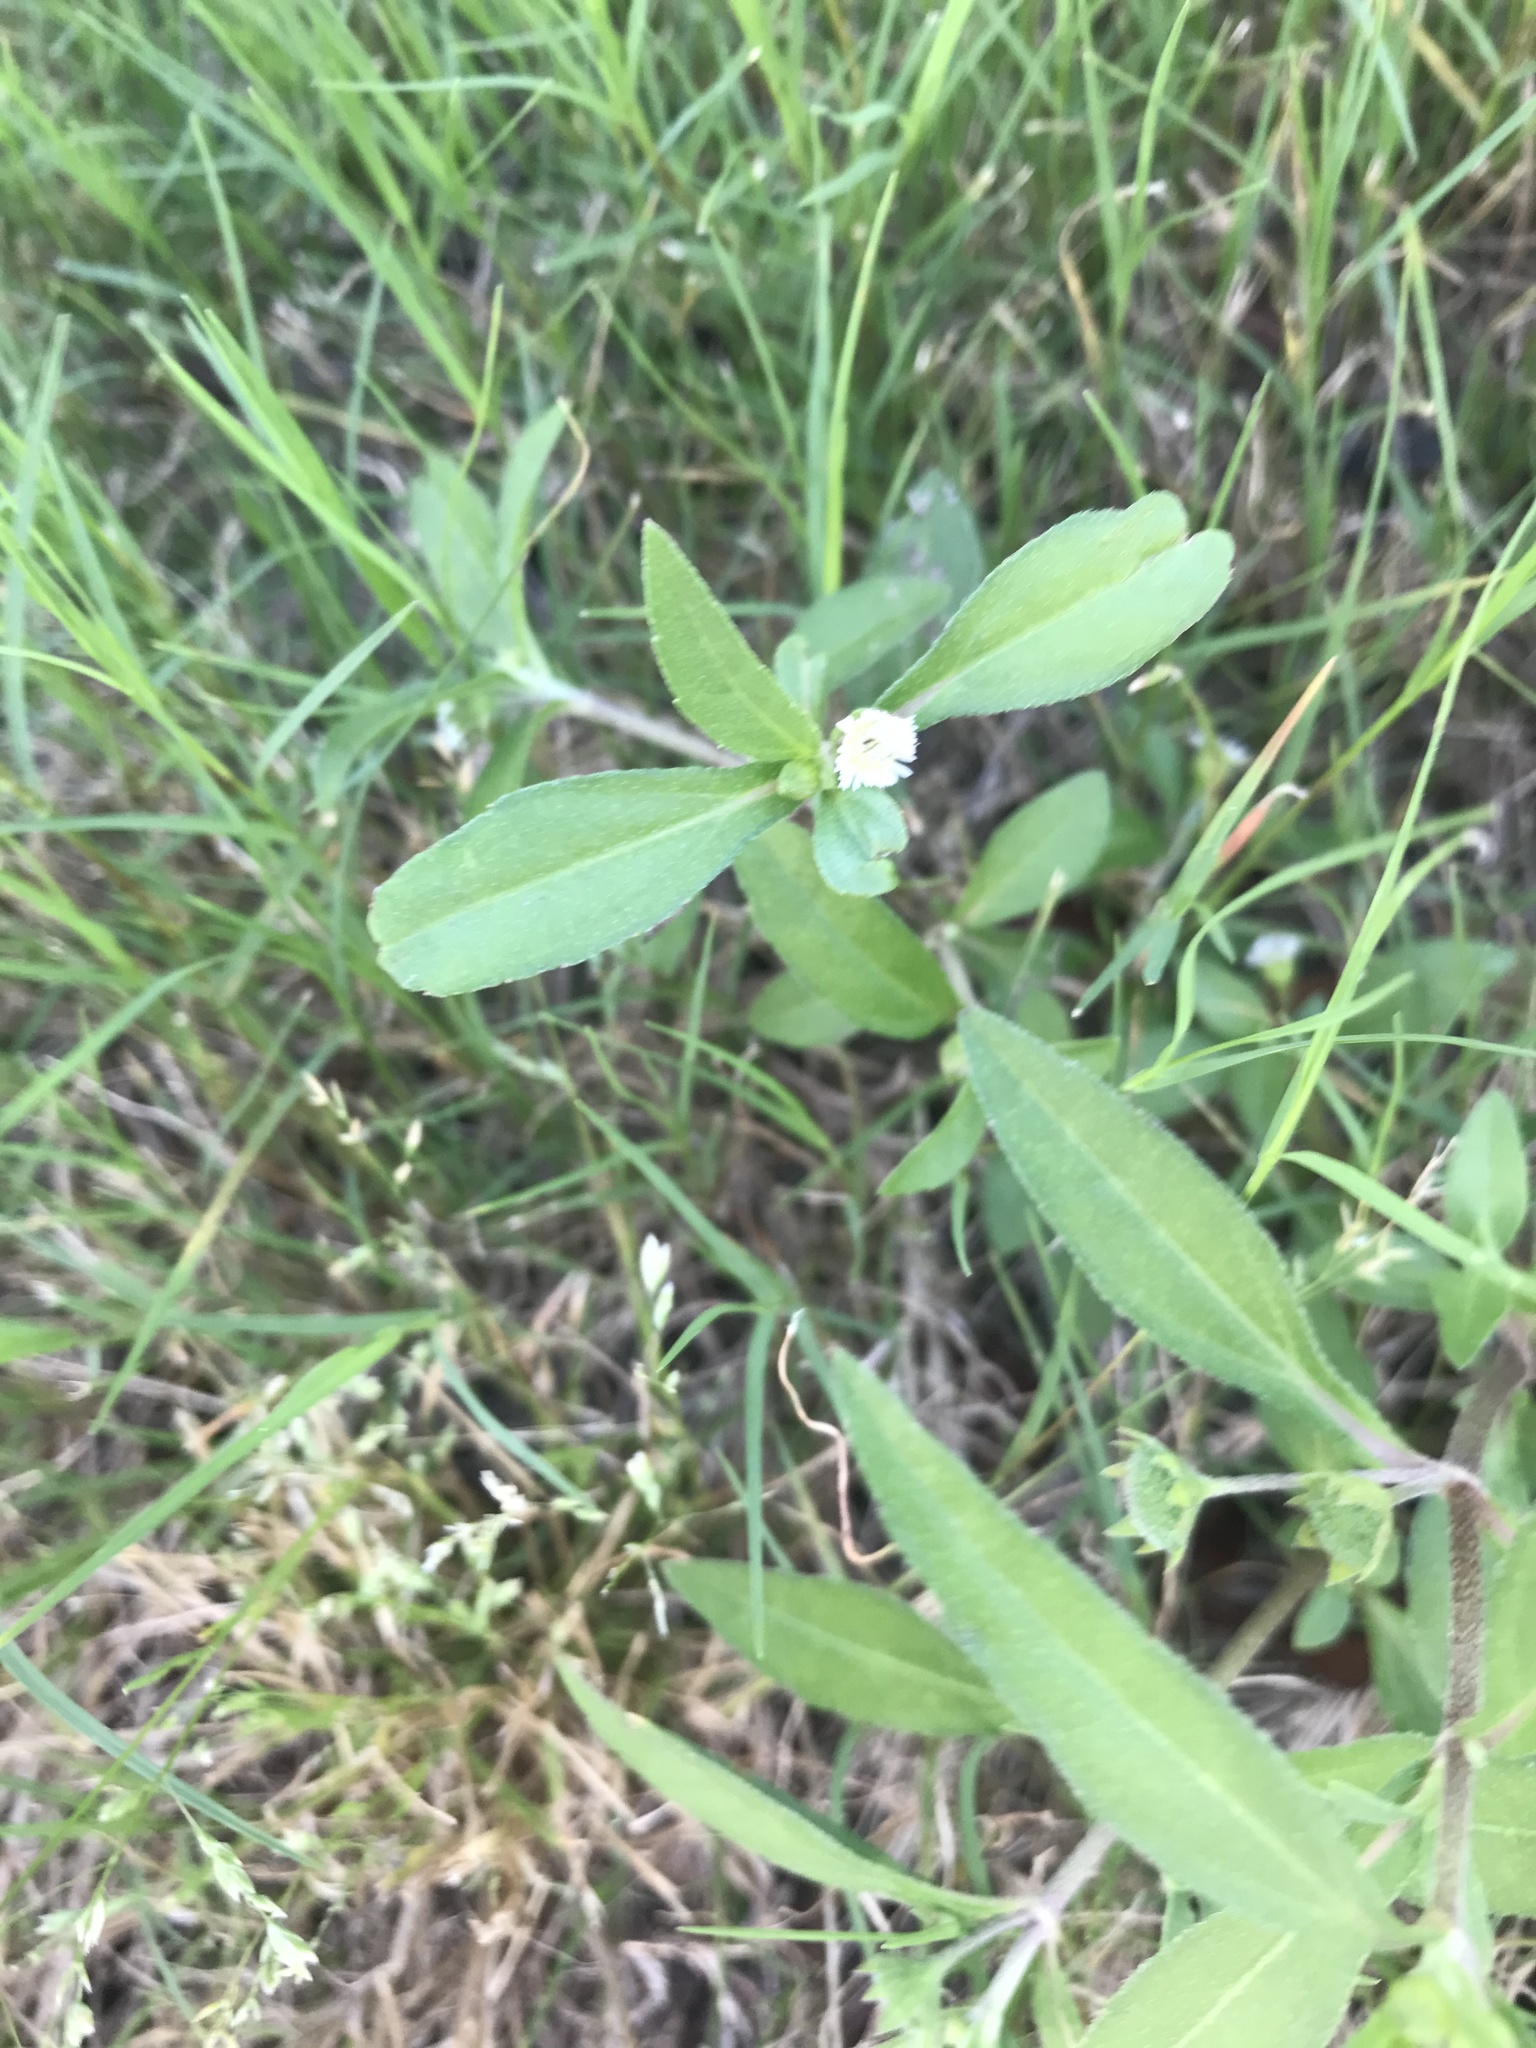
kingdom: Plantae
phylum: Tracheophyta
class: Magnoliopsida
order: Caryophyllales
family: Amaranthaceae
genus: Alternanthera
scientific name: Alternanthera philoxeroides
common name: Alligatorweed
